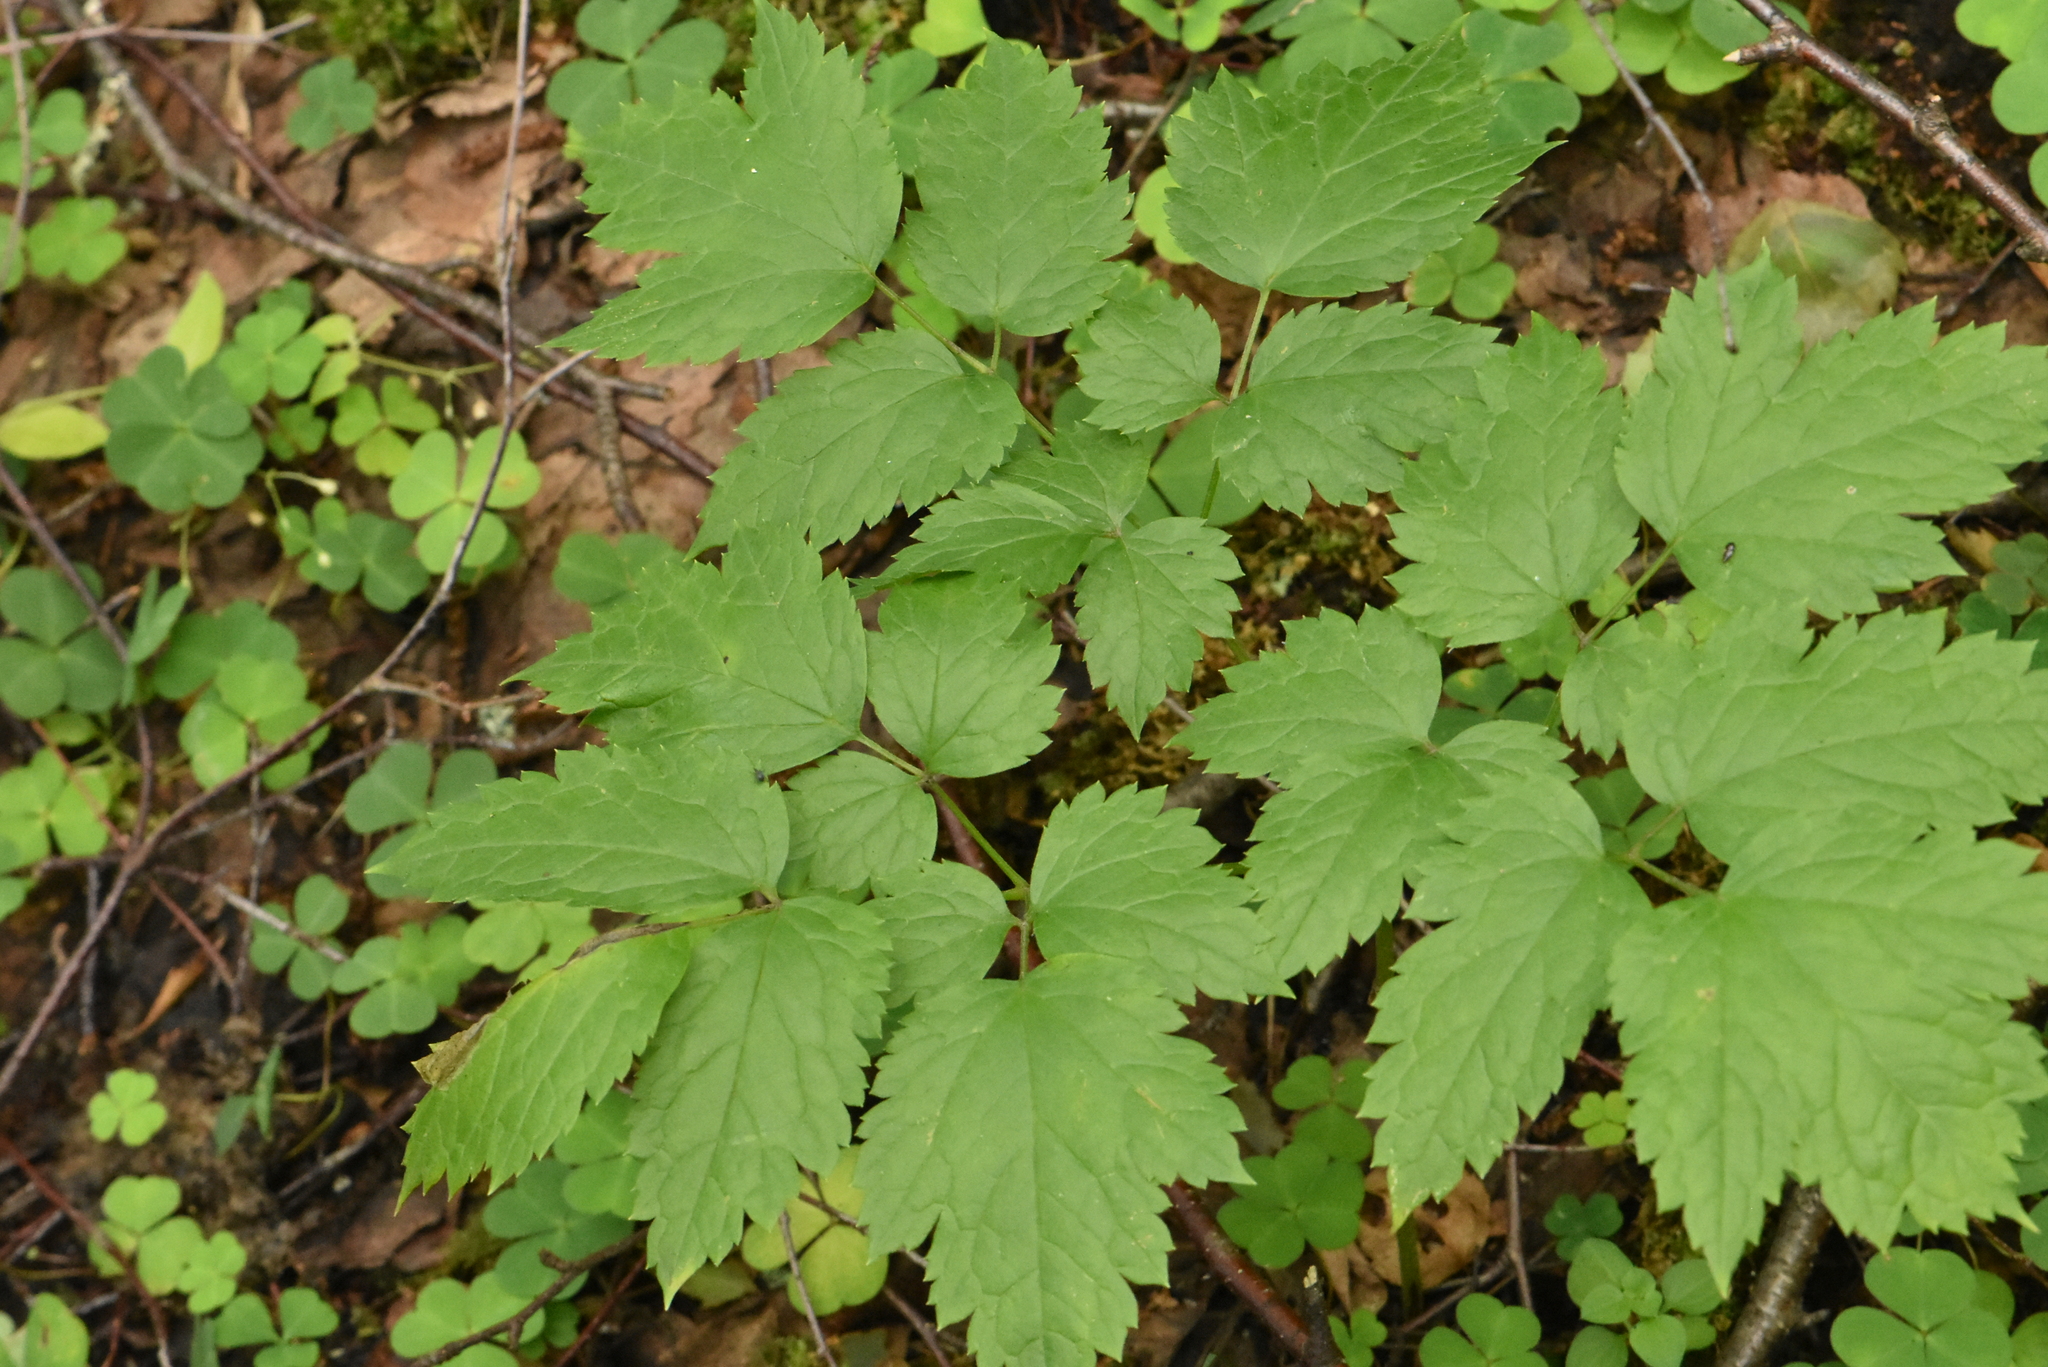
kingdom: Plantae
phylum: Tracheophyta
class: Magnoliopsida
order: Ranunculales
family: Ranunculaceae
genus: Actaea
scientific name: Actaea spicata
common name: Baneberry
